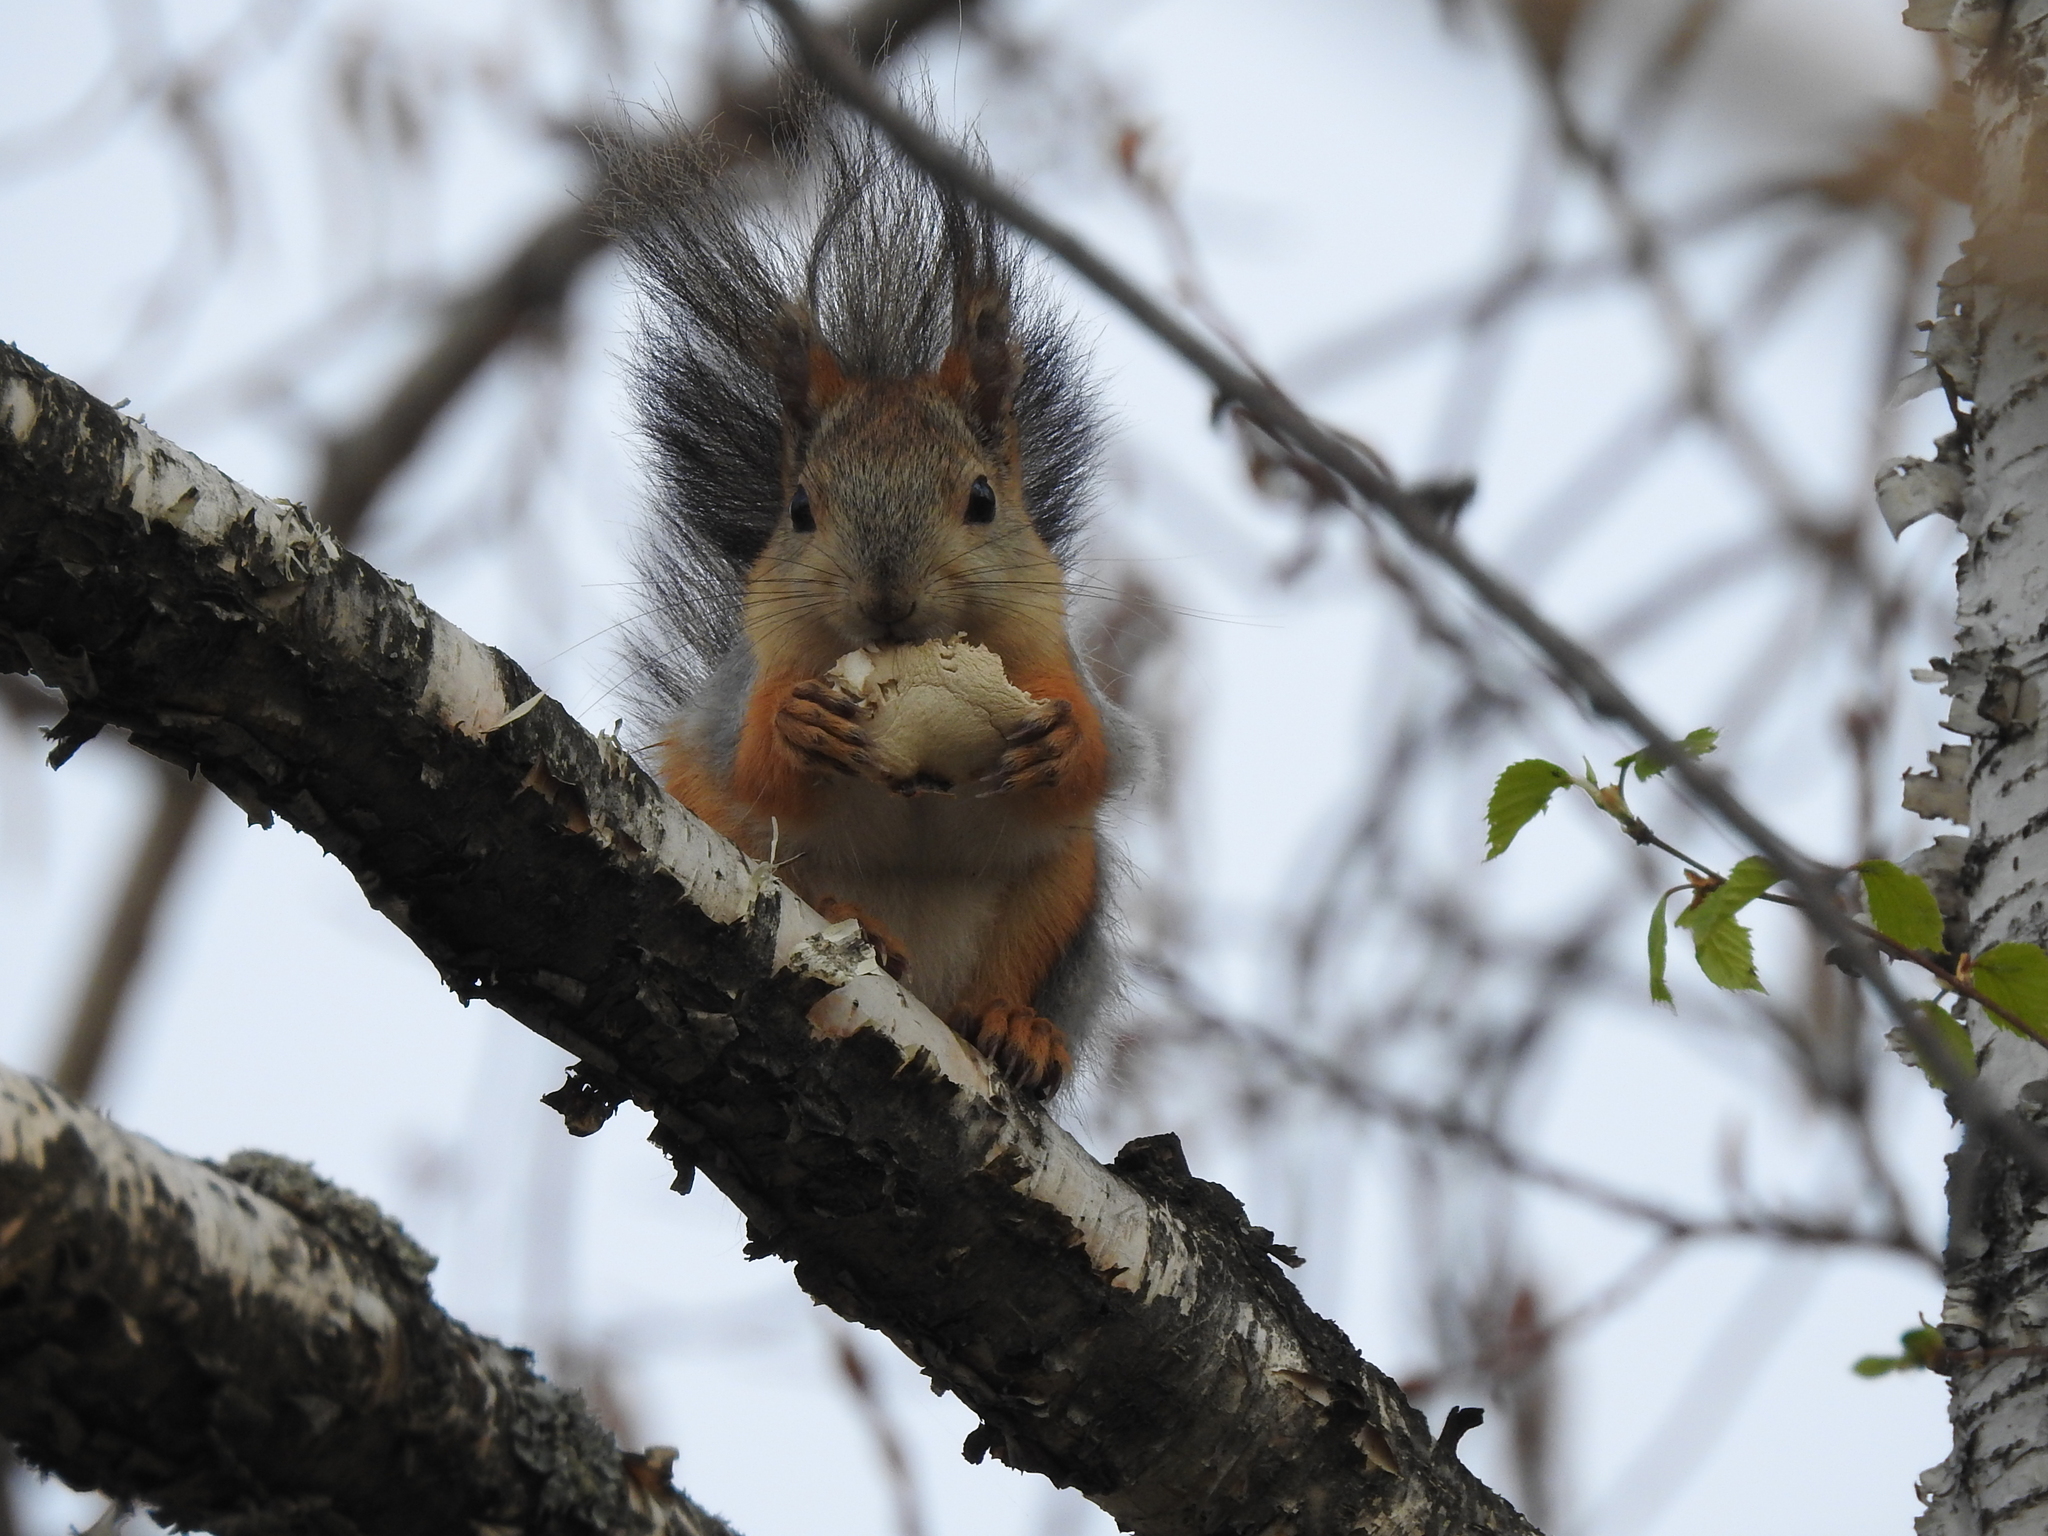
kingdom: Animalia
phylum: Chordata
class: Mammalia
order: Rodentia
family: Sciuridae
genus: Sciurus
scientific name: Sciurus vulgaris
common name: Eurasian red squirrel
